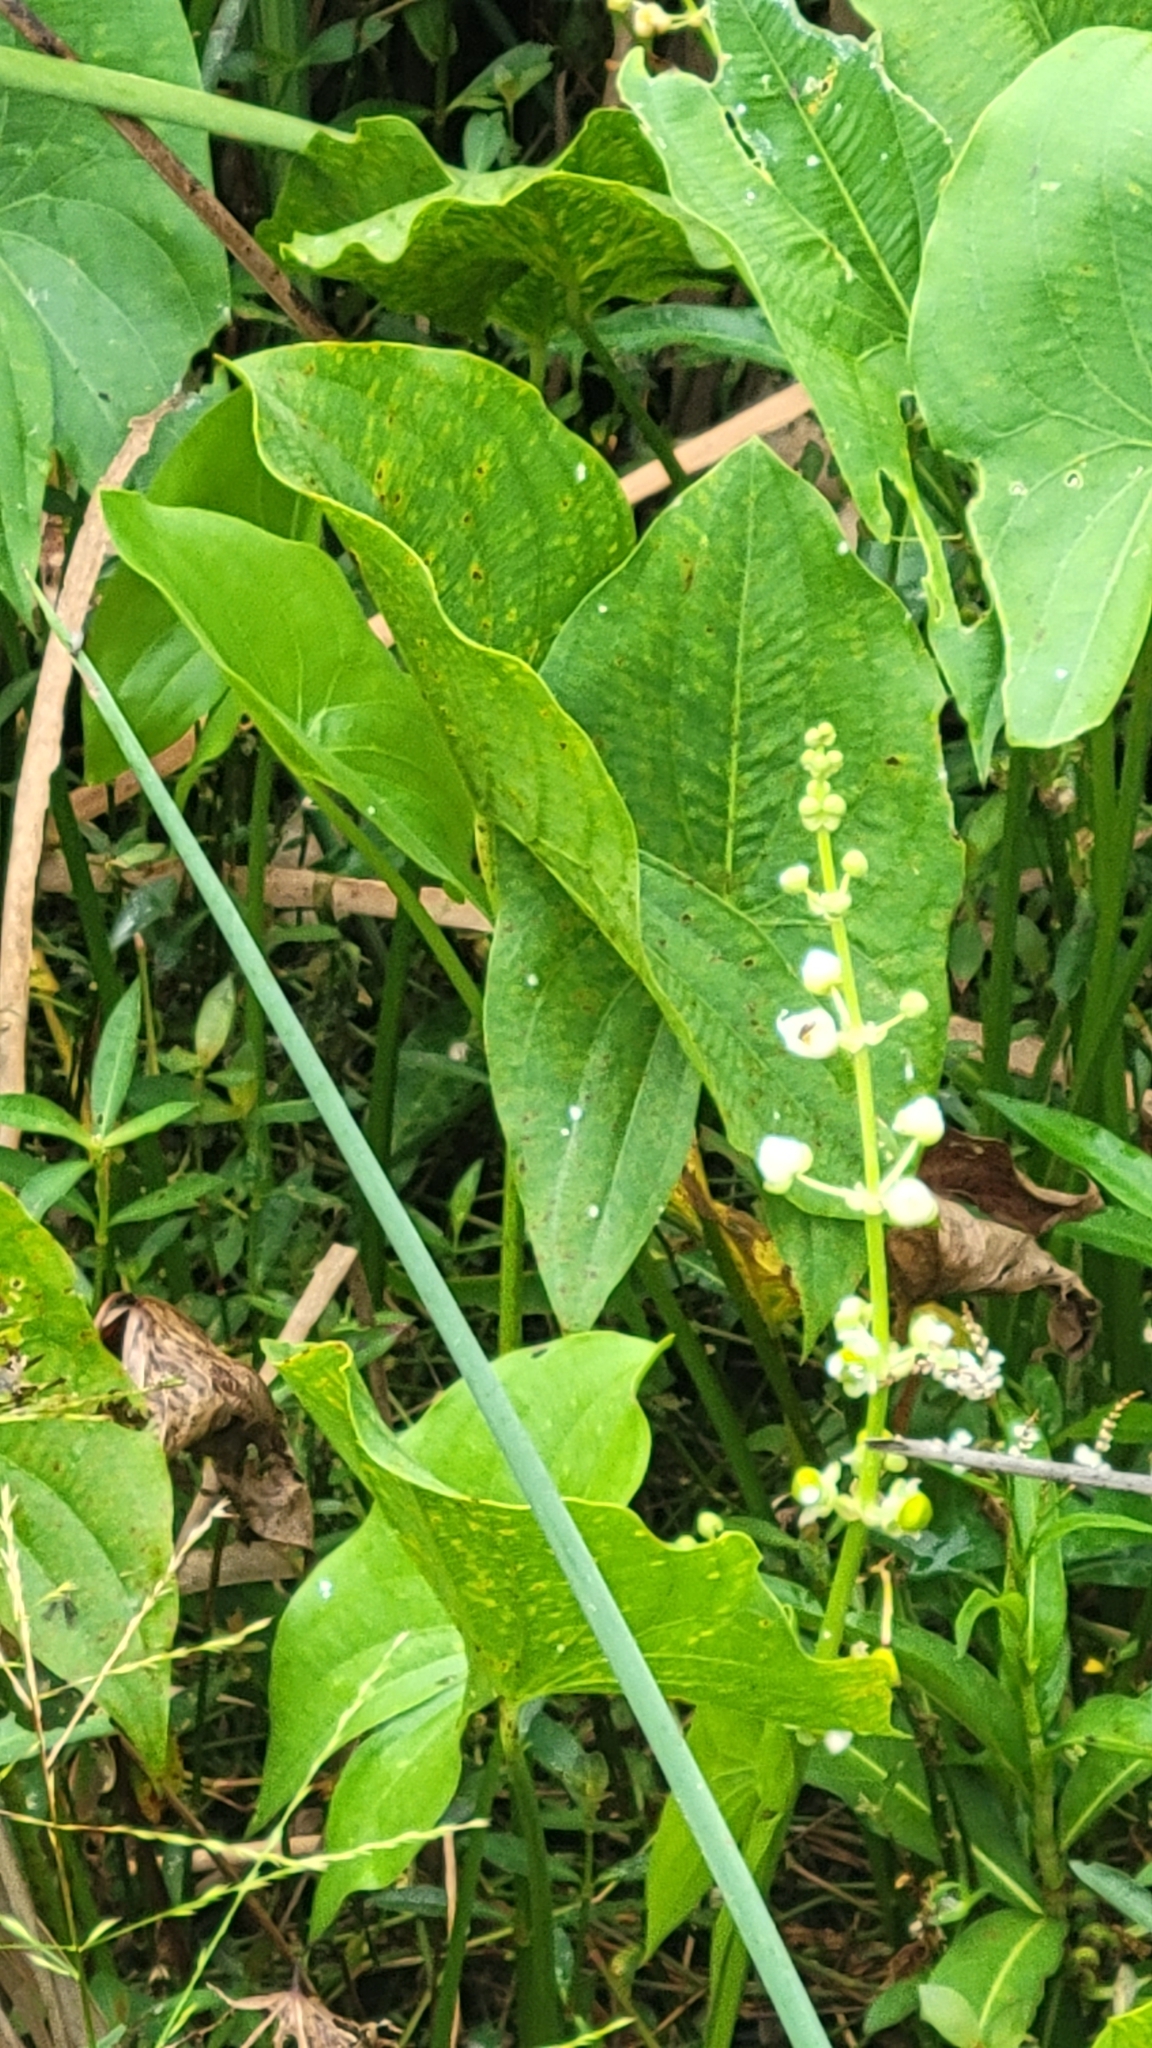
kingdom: Plantae
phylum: Tracheophyta
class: Liliopsida
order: Alismatales
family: Alismataceae
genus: Sagittaria
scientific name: Sagittaria latifolia
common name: Duck-potato
